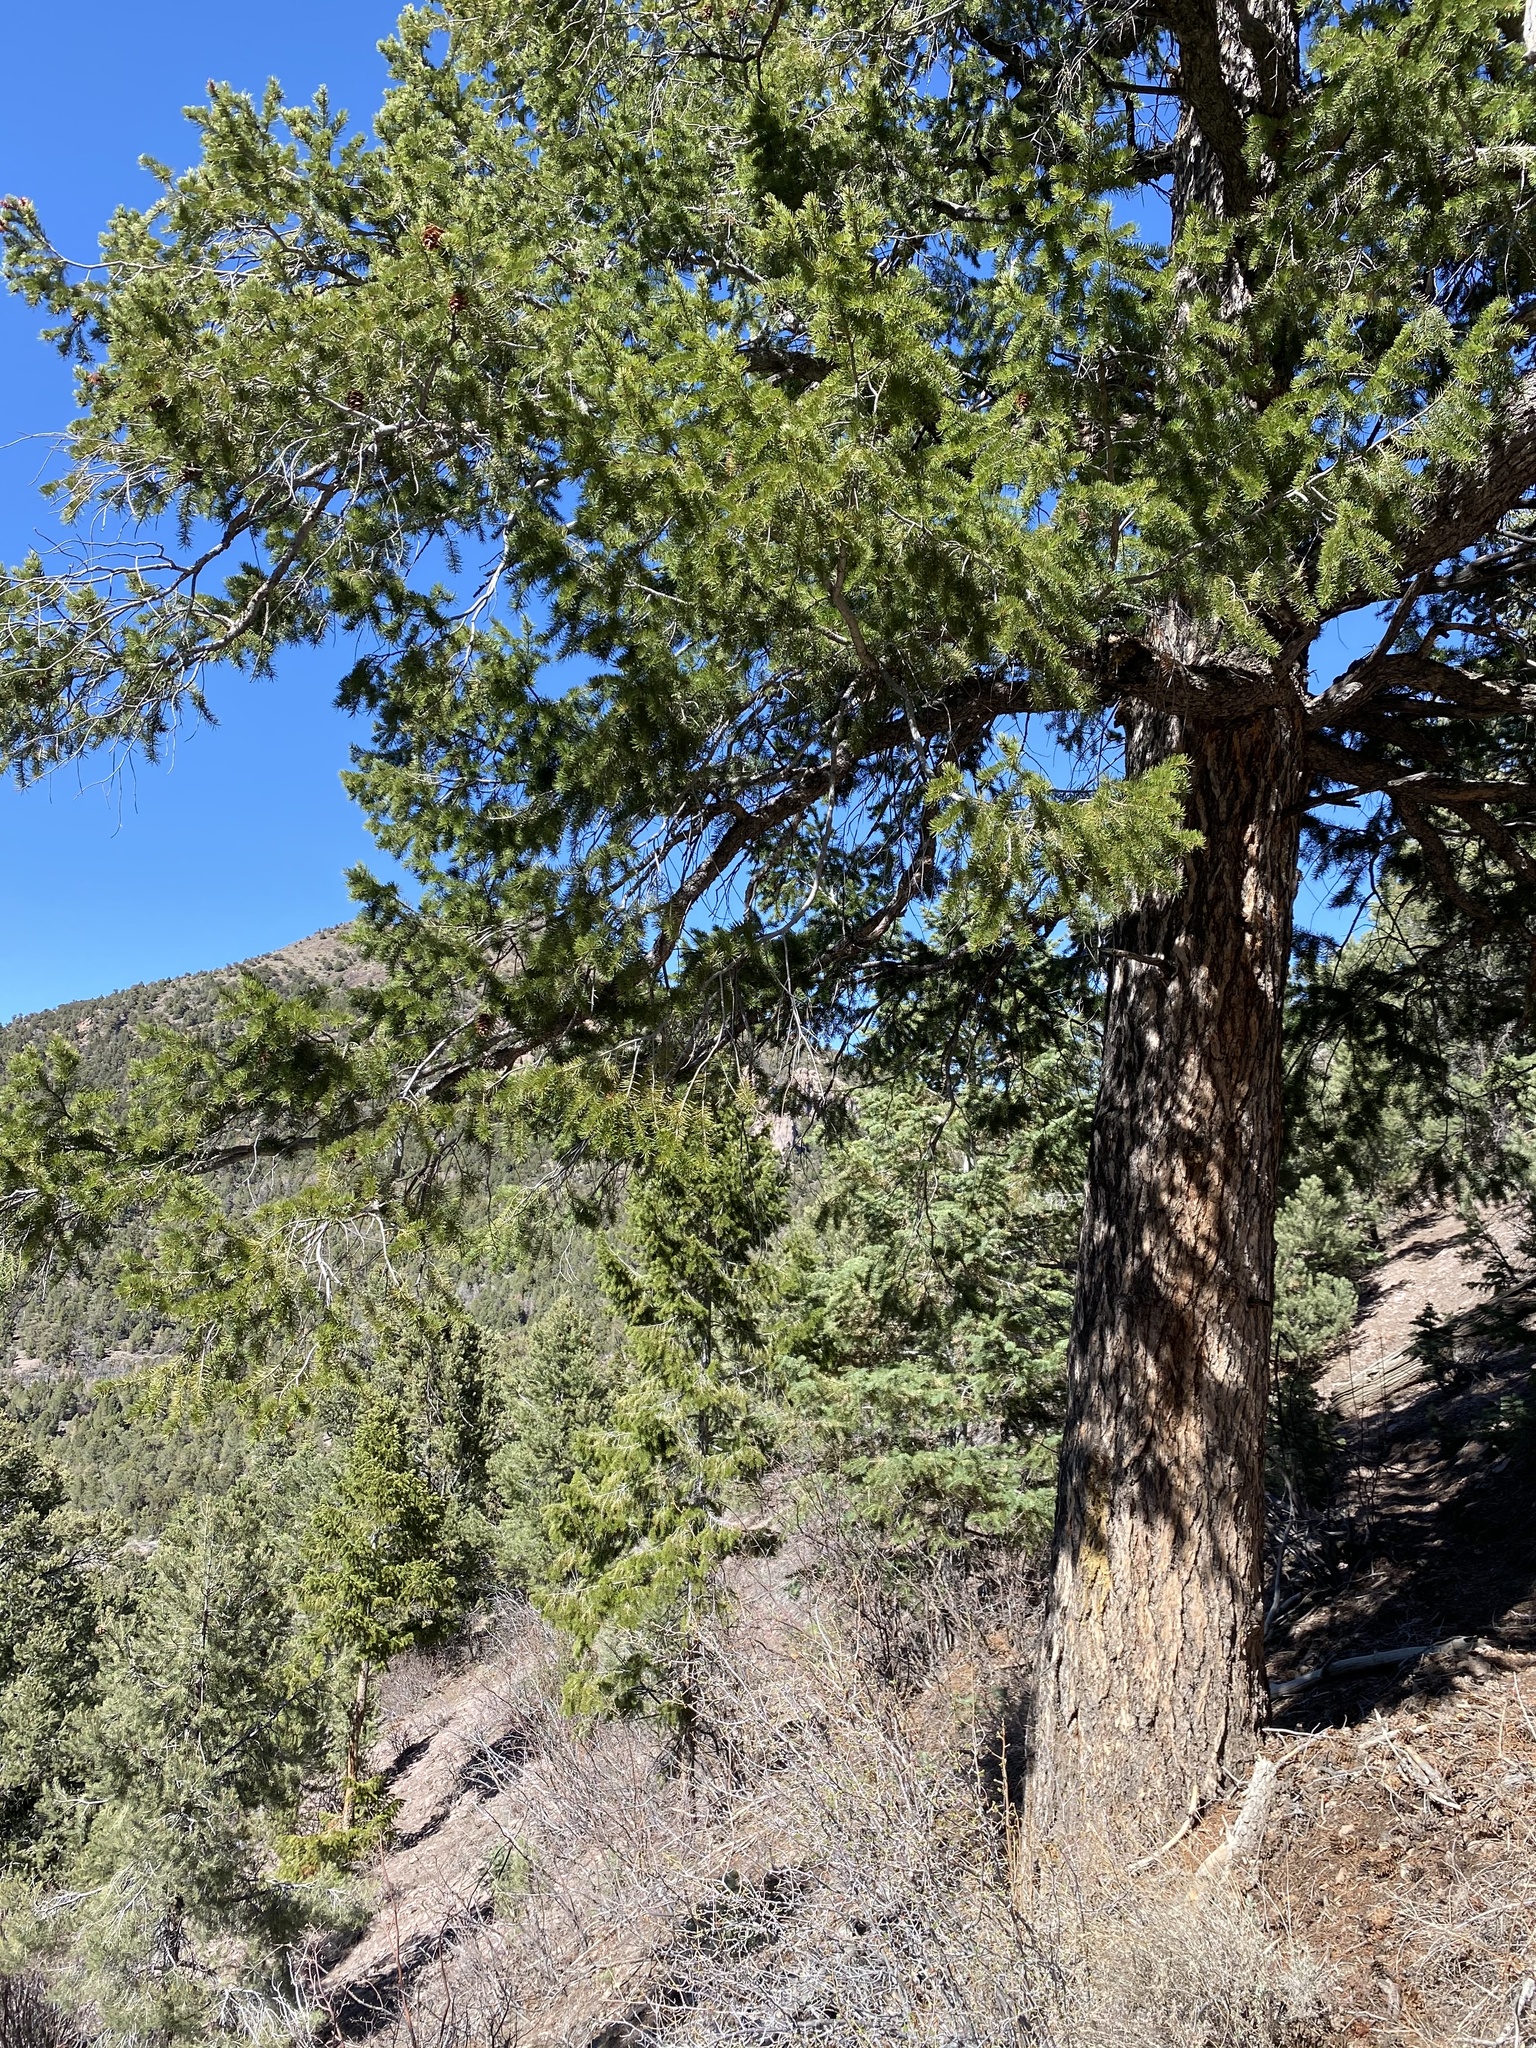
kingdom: Plantae
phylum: Tracheophyta
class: Pinopsida
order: Pinales
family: Pinaceae
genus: Pseudotsuga
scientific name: Pseudotsuga menziesii
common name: Douglas fir
